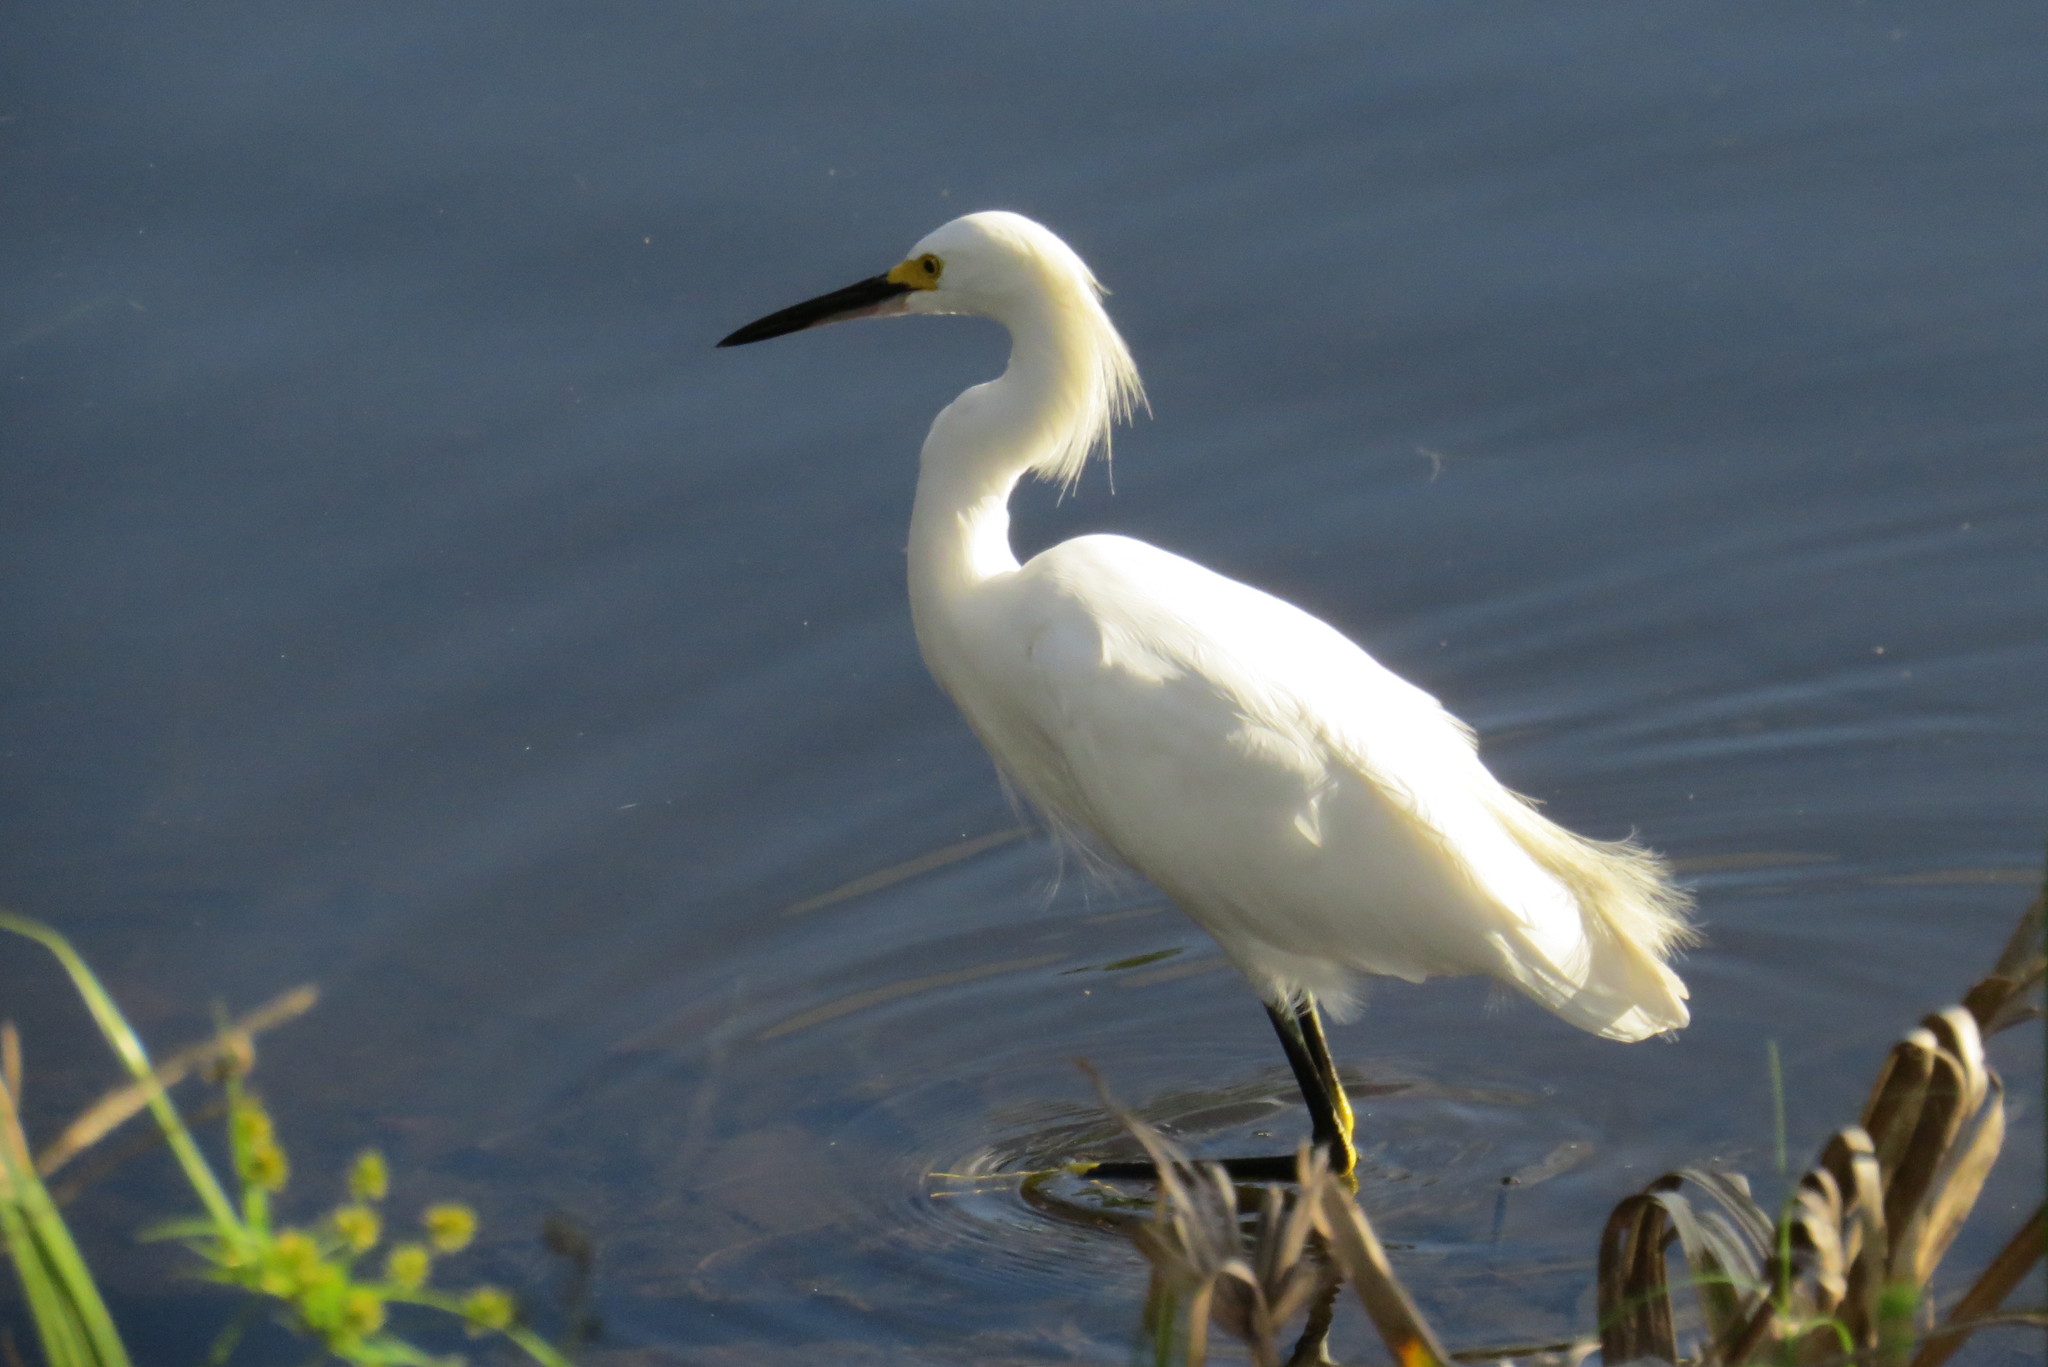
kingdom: Animalia
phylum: Chordata
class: Aves
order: Pelecaniformes
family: Ardeidae
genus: Egretta
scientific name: Egretta thula
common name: Snowy egret
